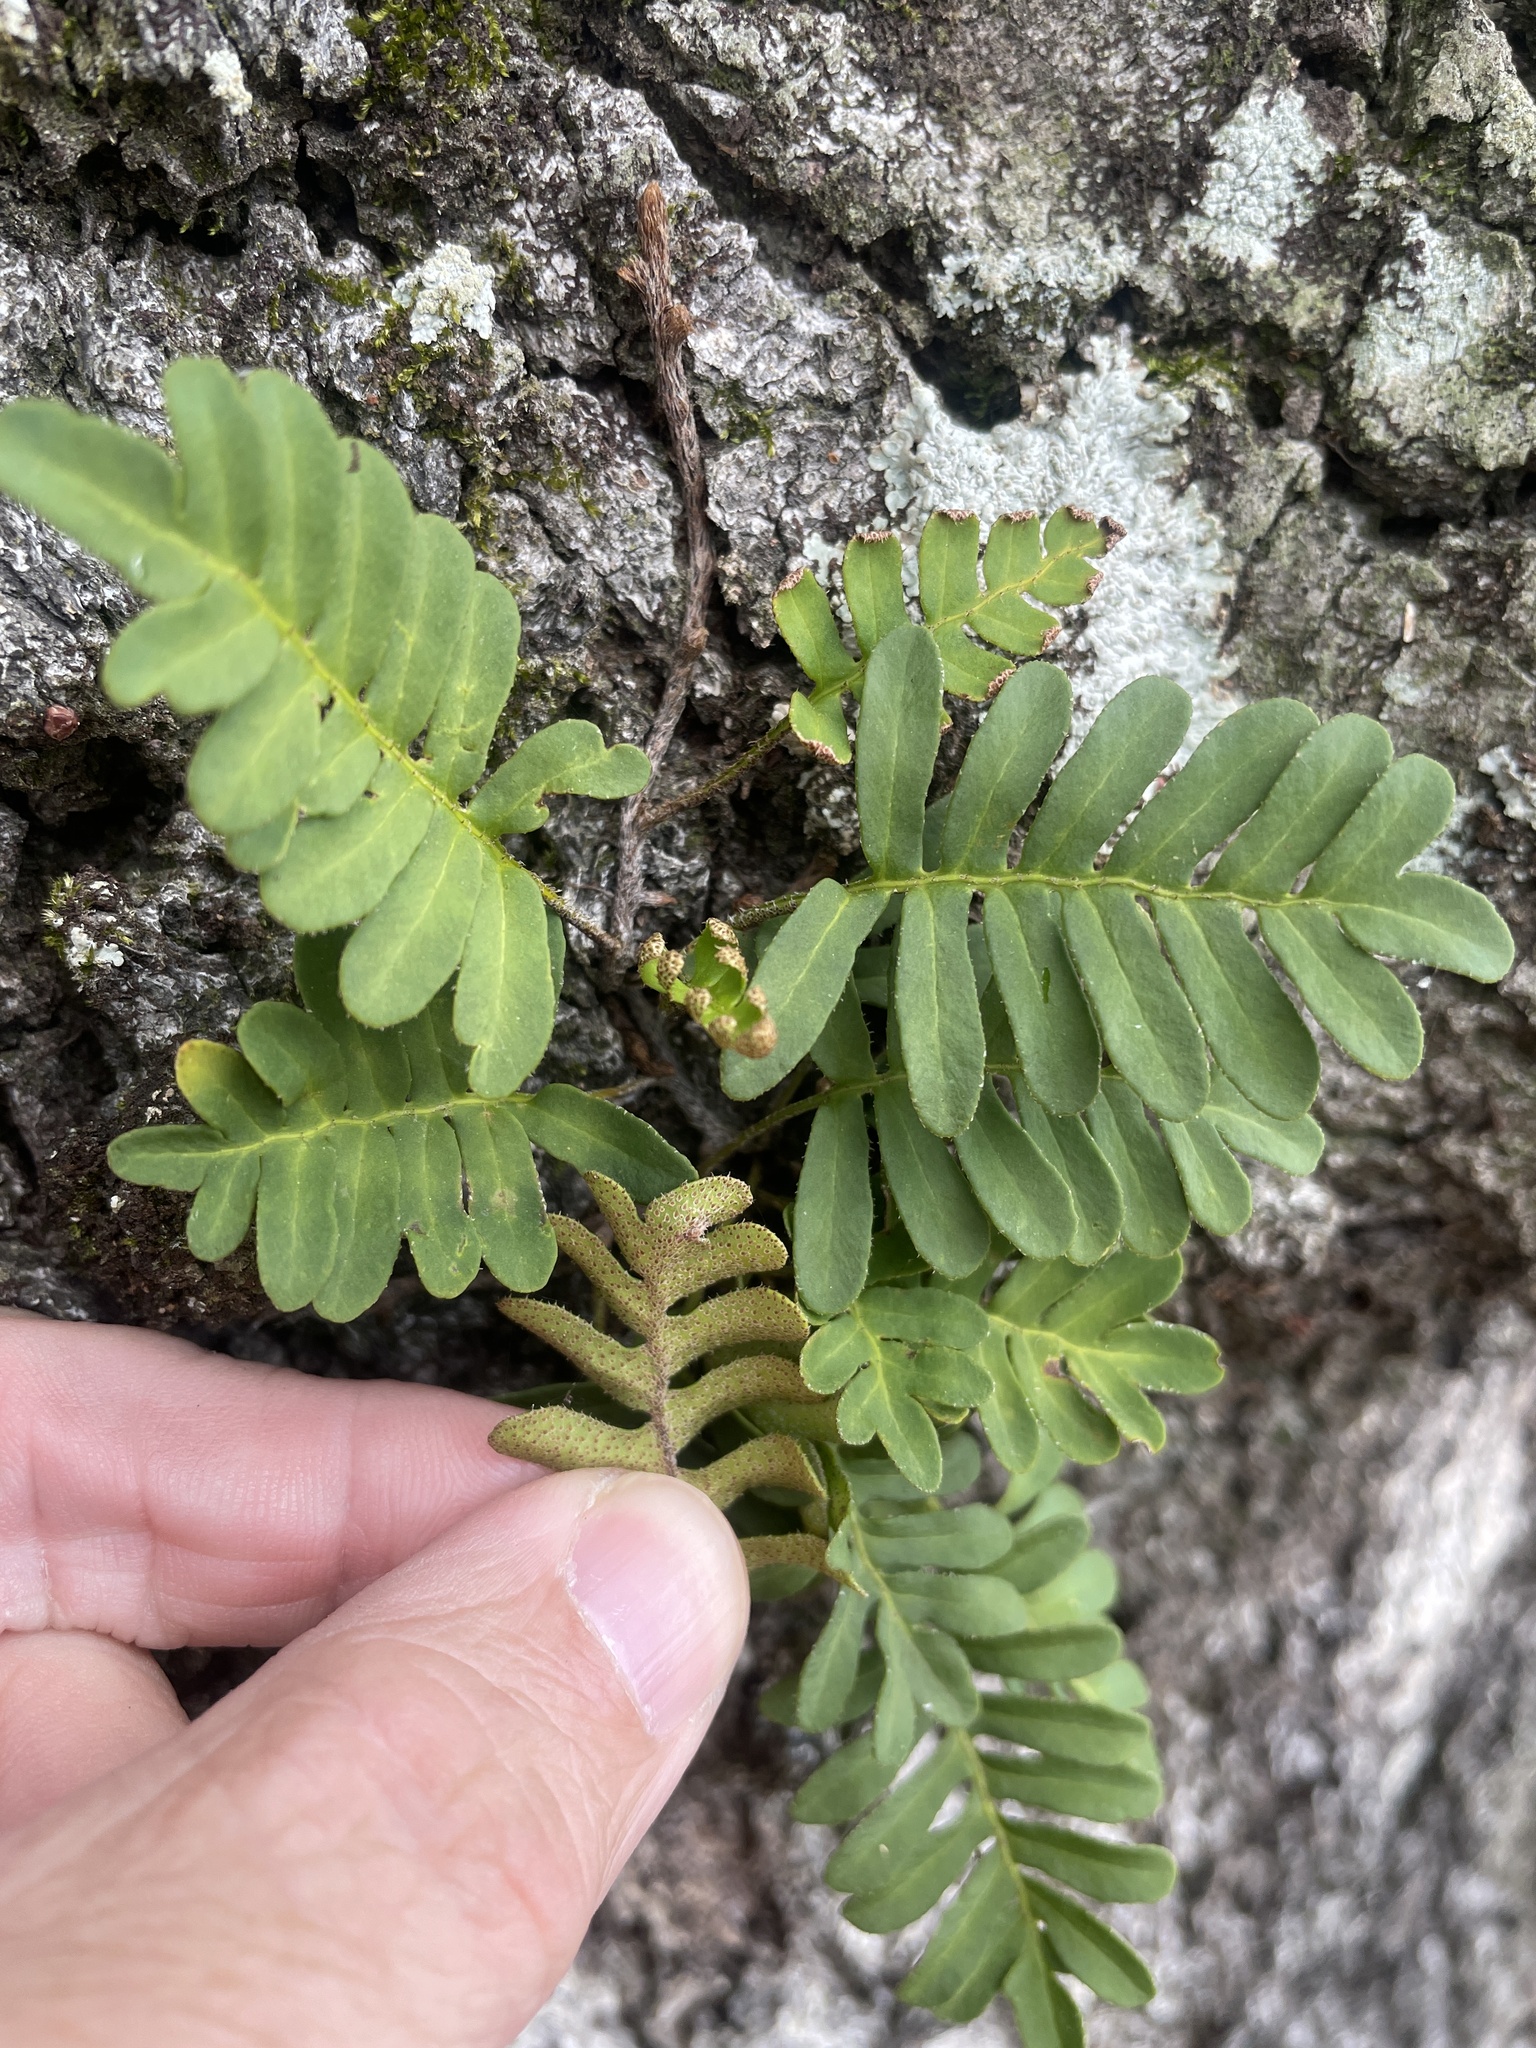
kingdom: Plantae
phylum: Tracheophyta
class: Polypodiopsida
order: Polypodiales
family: Polypodiaceae
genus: Pleopeltis
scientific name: Pleopeltis michauxiana
